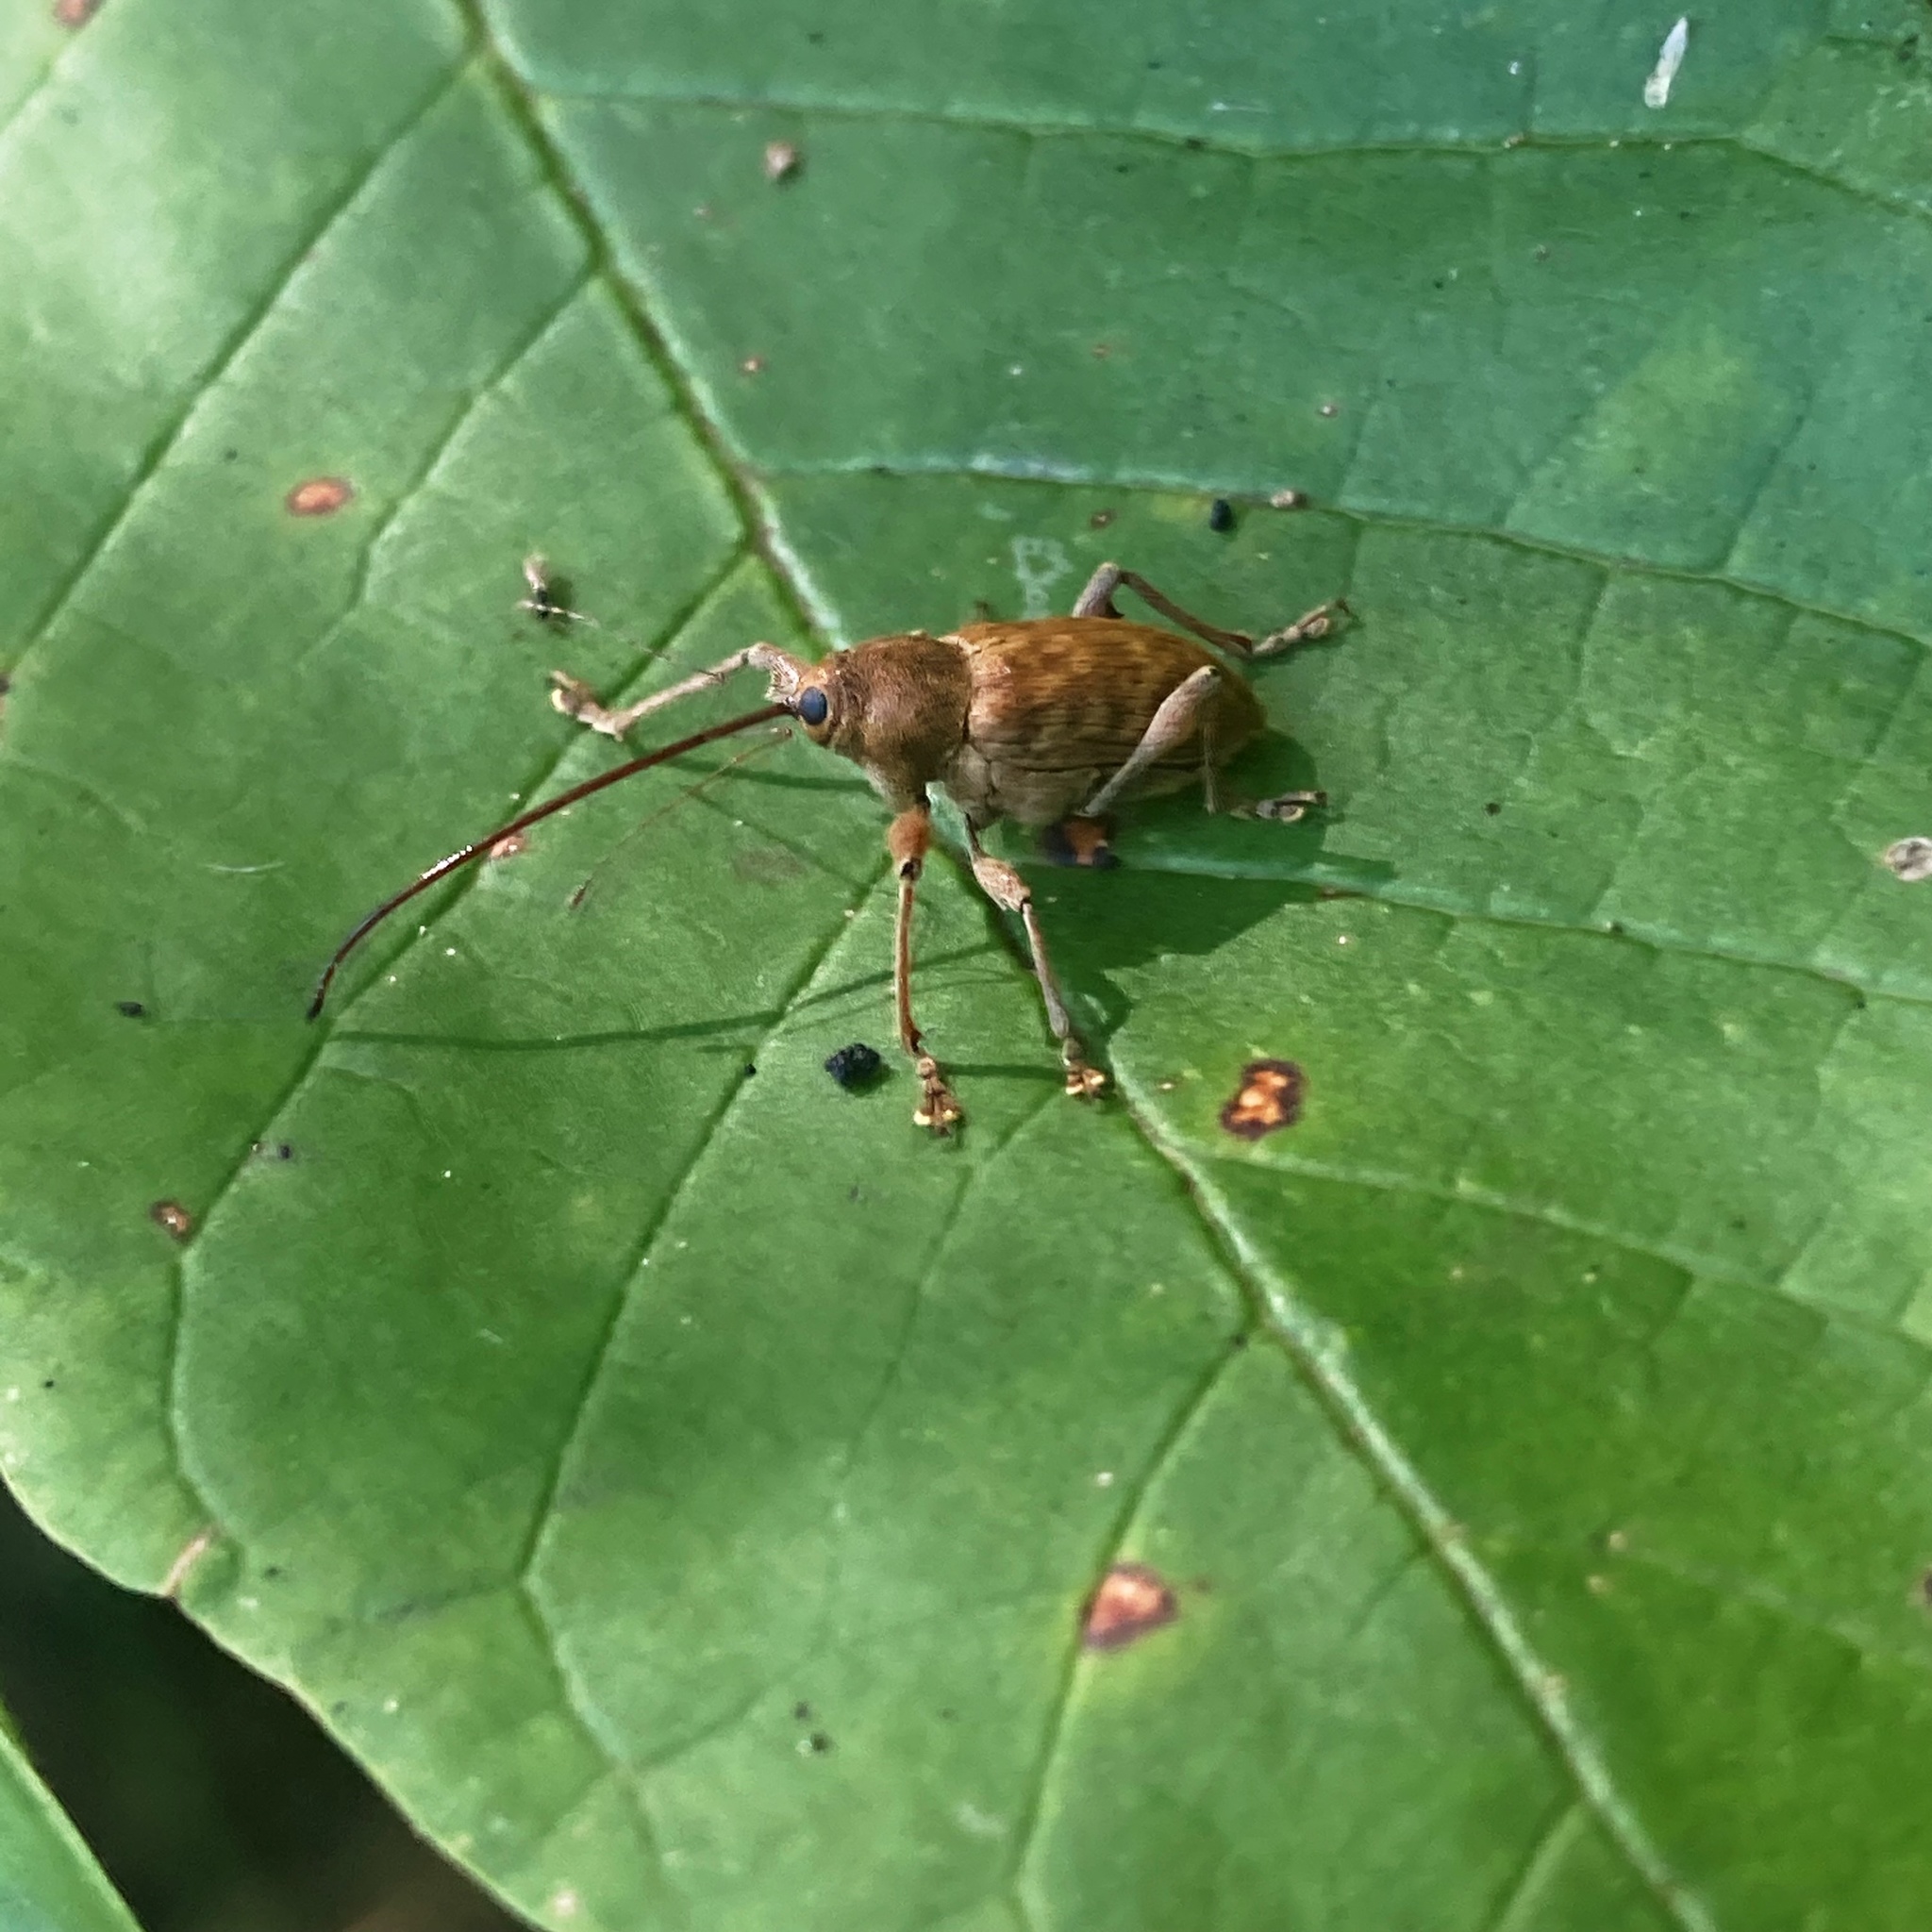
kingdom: Animalia
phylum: Arthropoda
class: Insecta
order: Coleoptera
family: Curculionidae
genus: Curculio
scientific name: Curculio proboscideus
